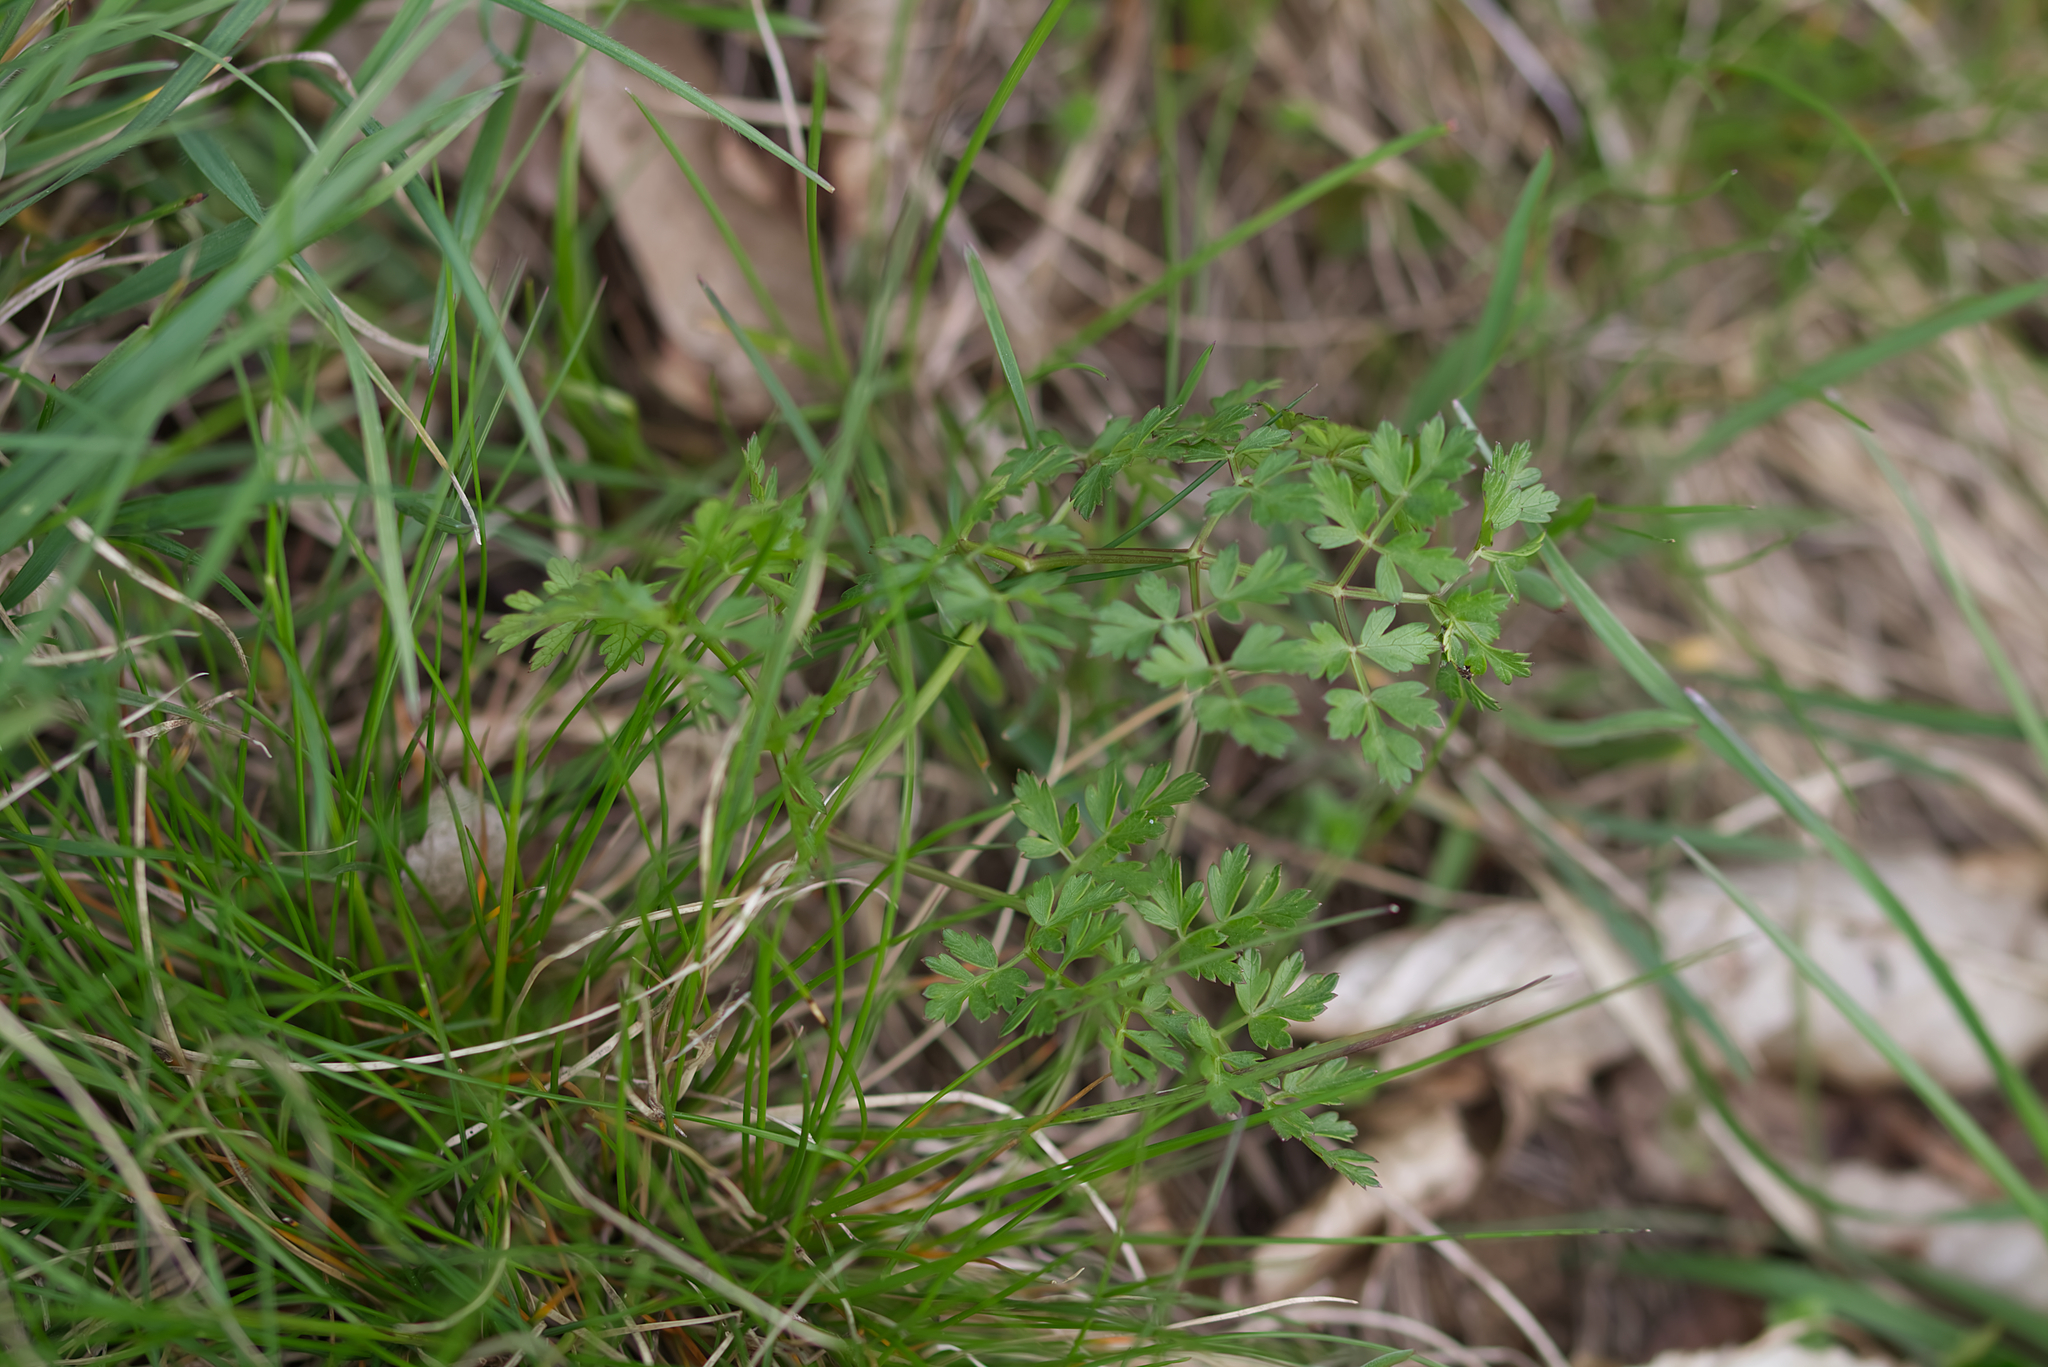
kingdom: Plantae
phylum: Tracheophyta
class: Magnoliopsida
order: Apiales
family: Apiaceae
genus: Oreoselinum
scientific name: Oreoselinum nigrum
